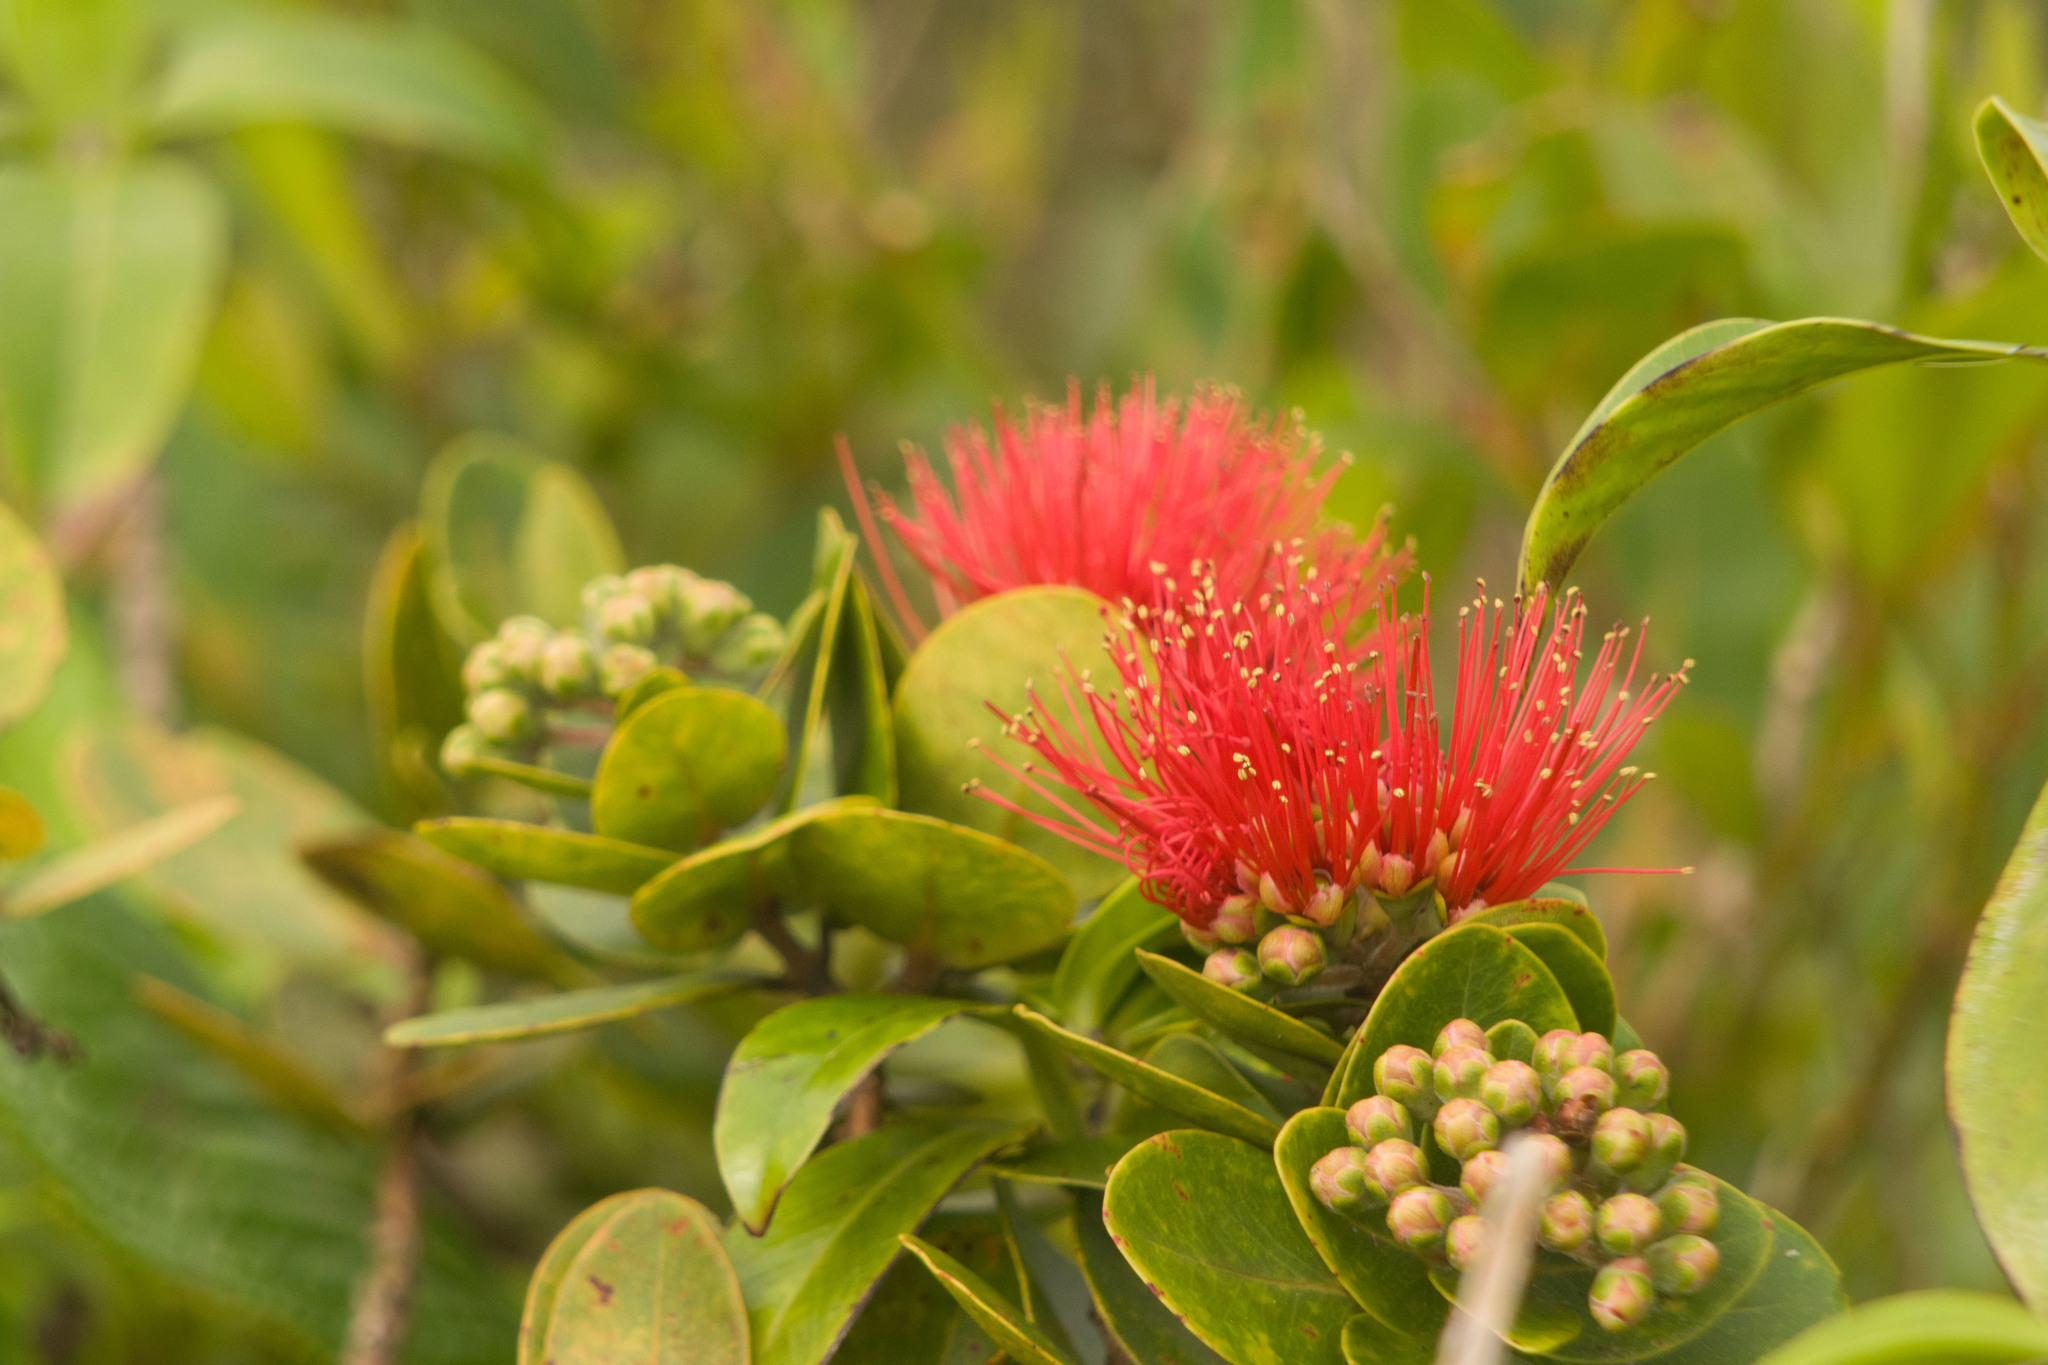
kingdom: Plantae
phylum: Tracheophyta
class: Magnoliopsida
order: Myrtales
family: Myrtaceae
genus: Metrosideros
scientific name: Metrosideros polymorpha
